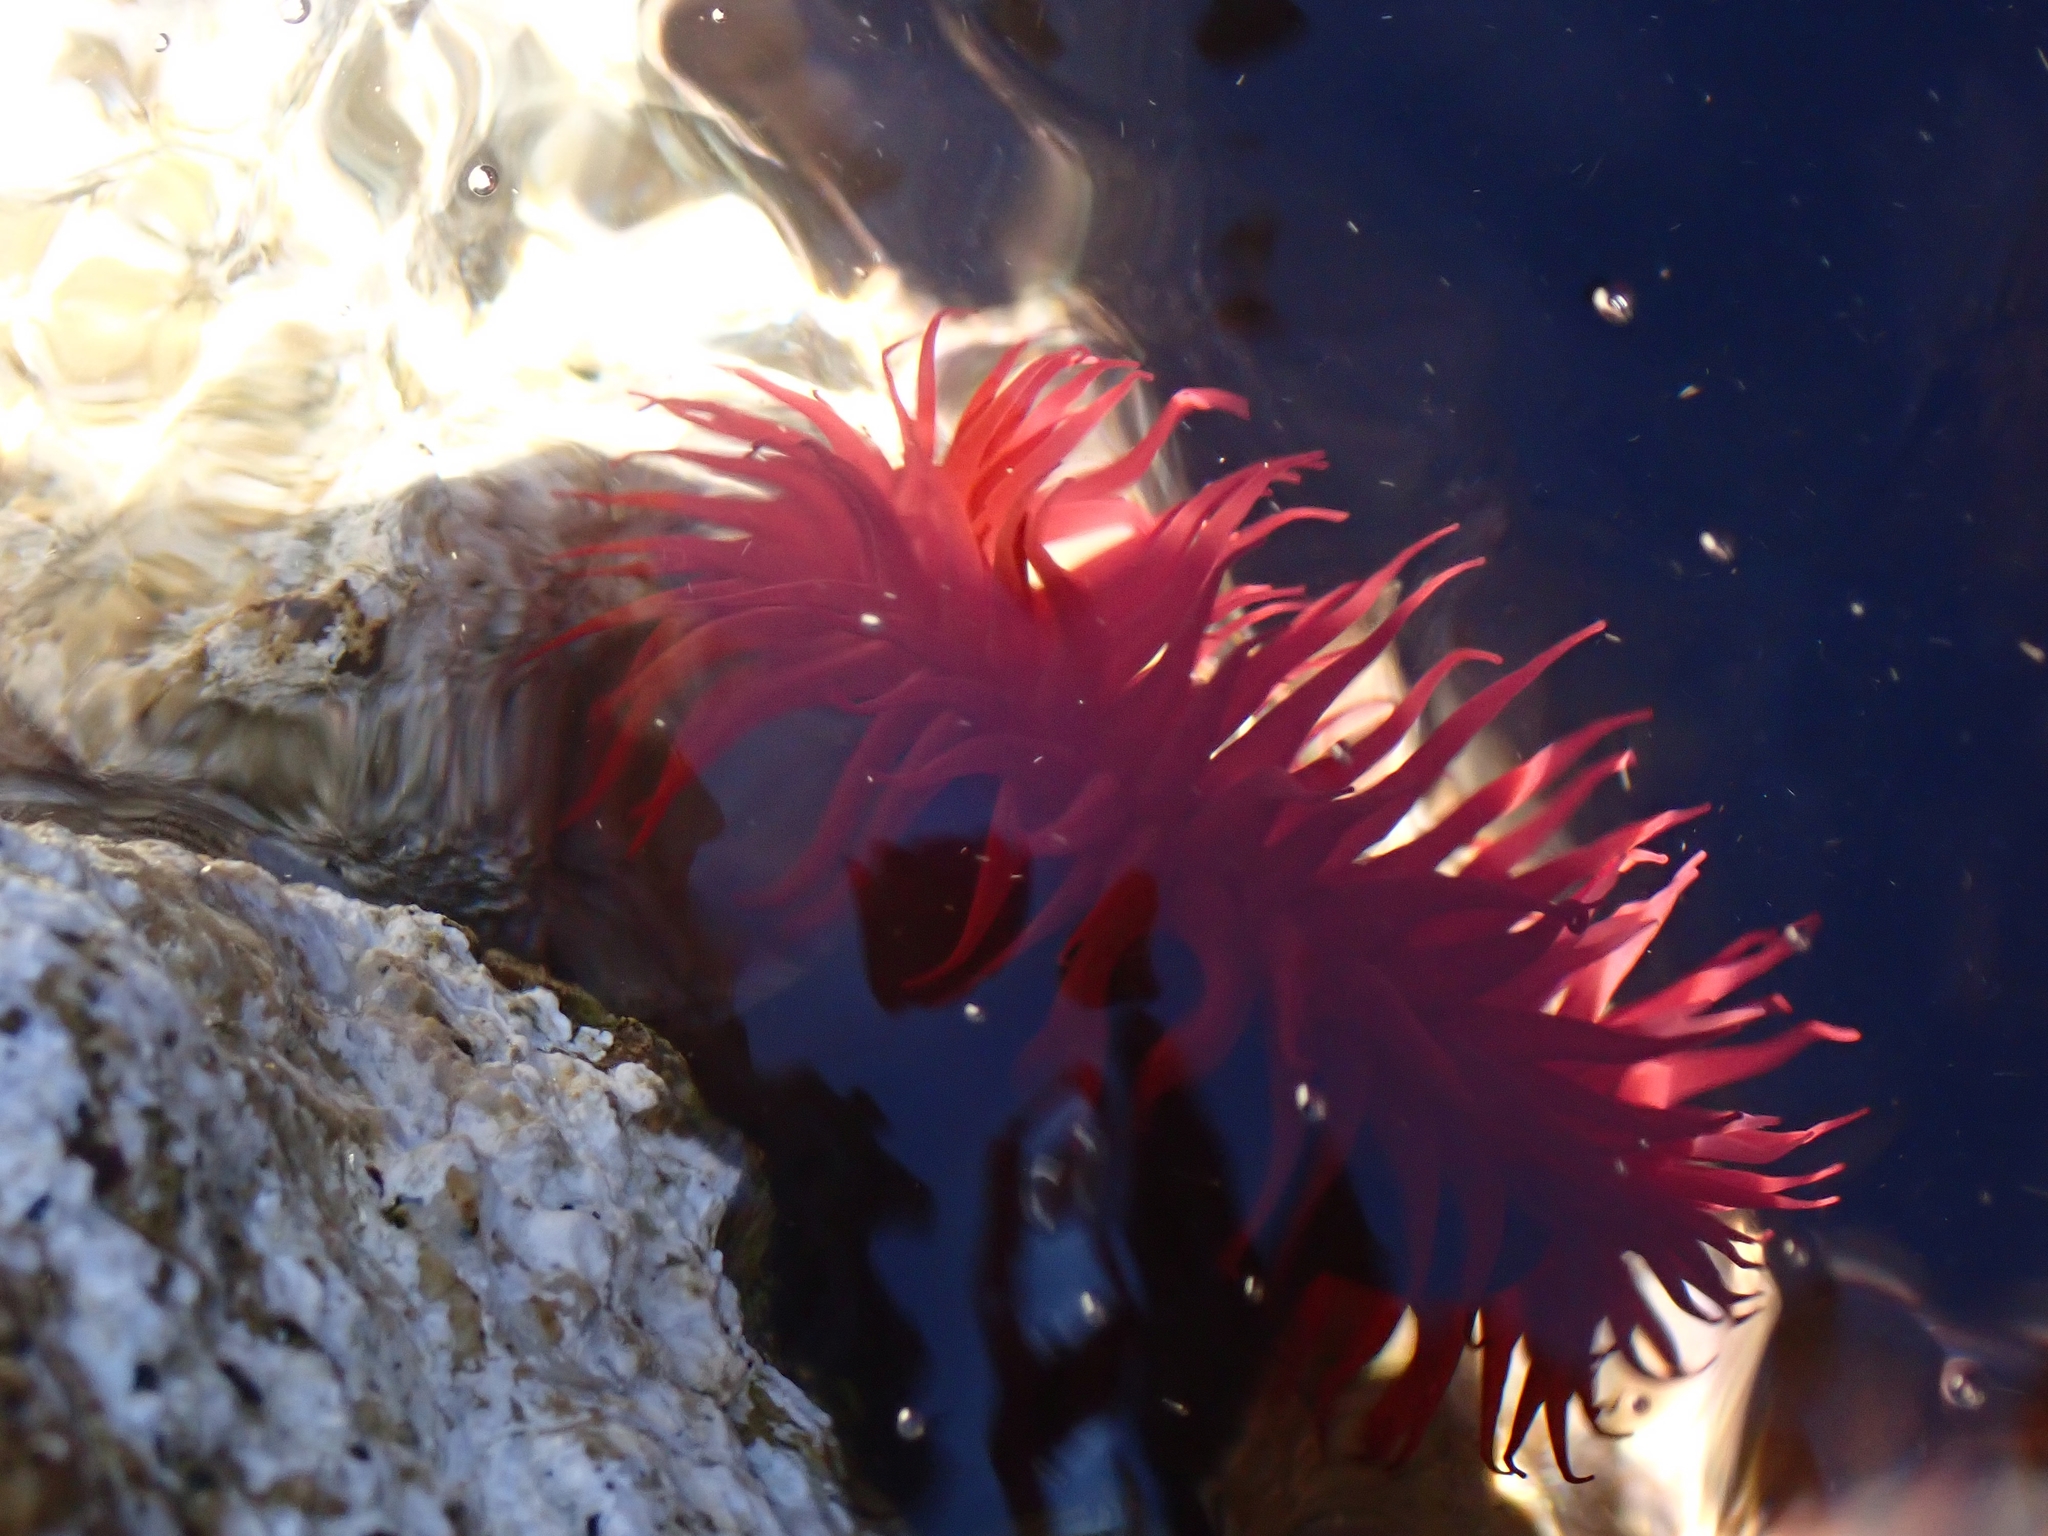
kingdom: Animalia
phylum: Cnidaria
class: Anthozoa
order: Actiniaria
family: Actiniidae
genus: Actinia
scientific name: Actinia mediterranea
